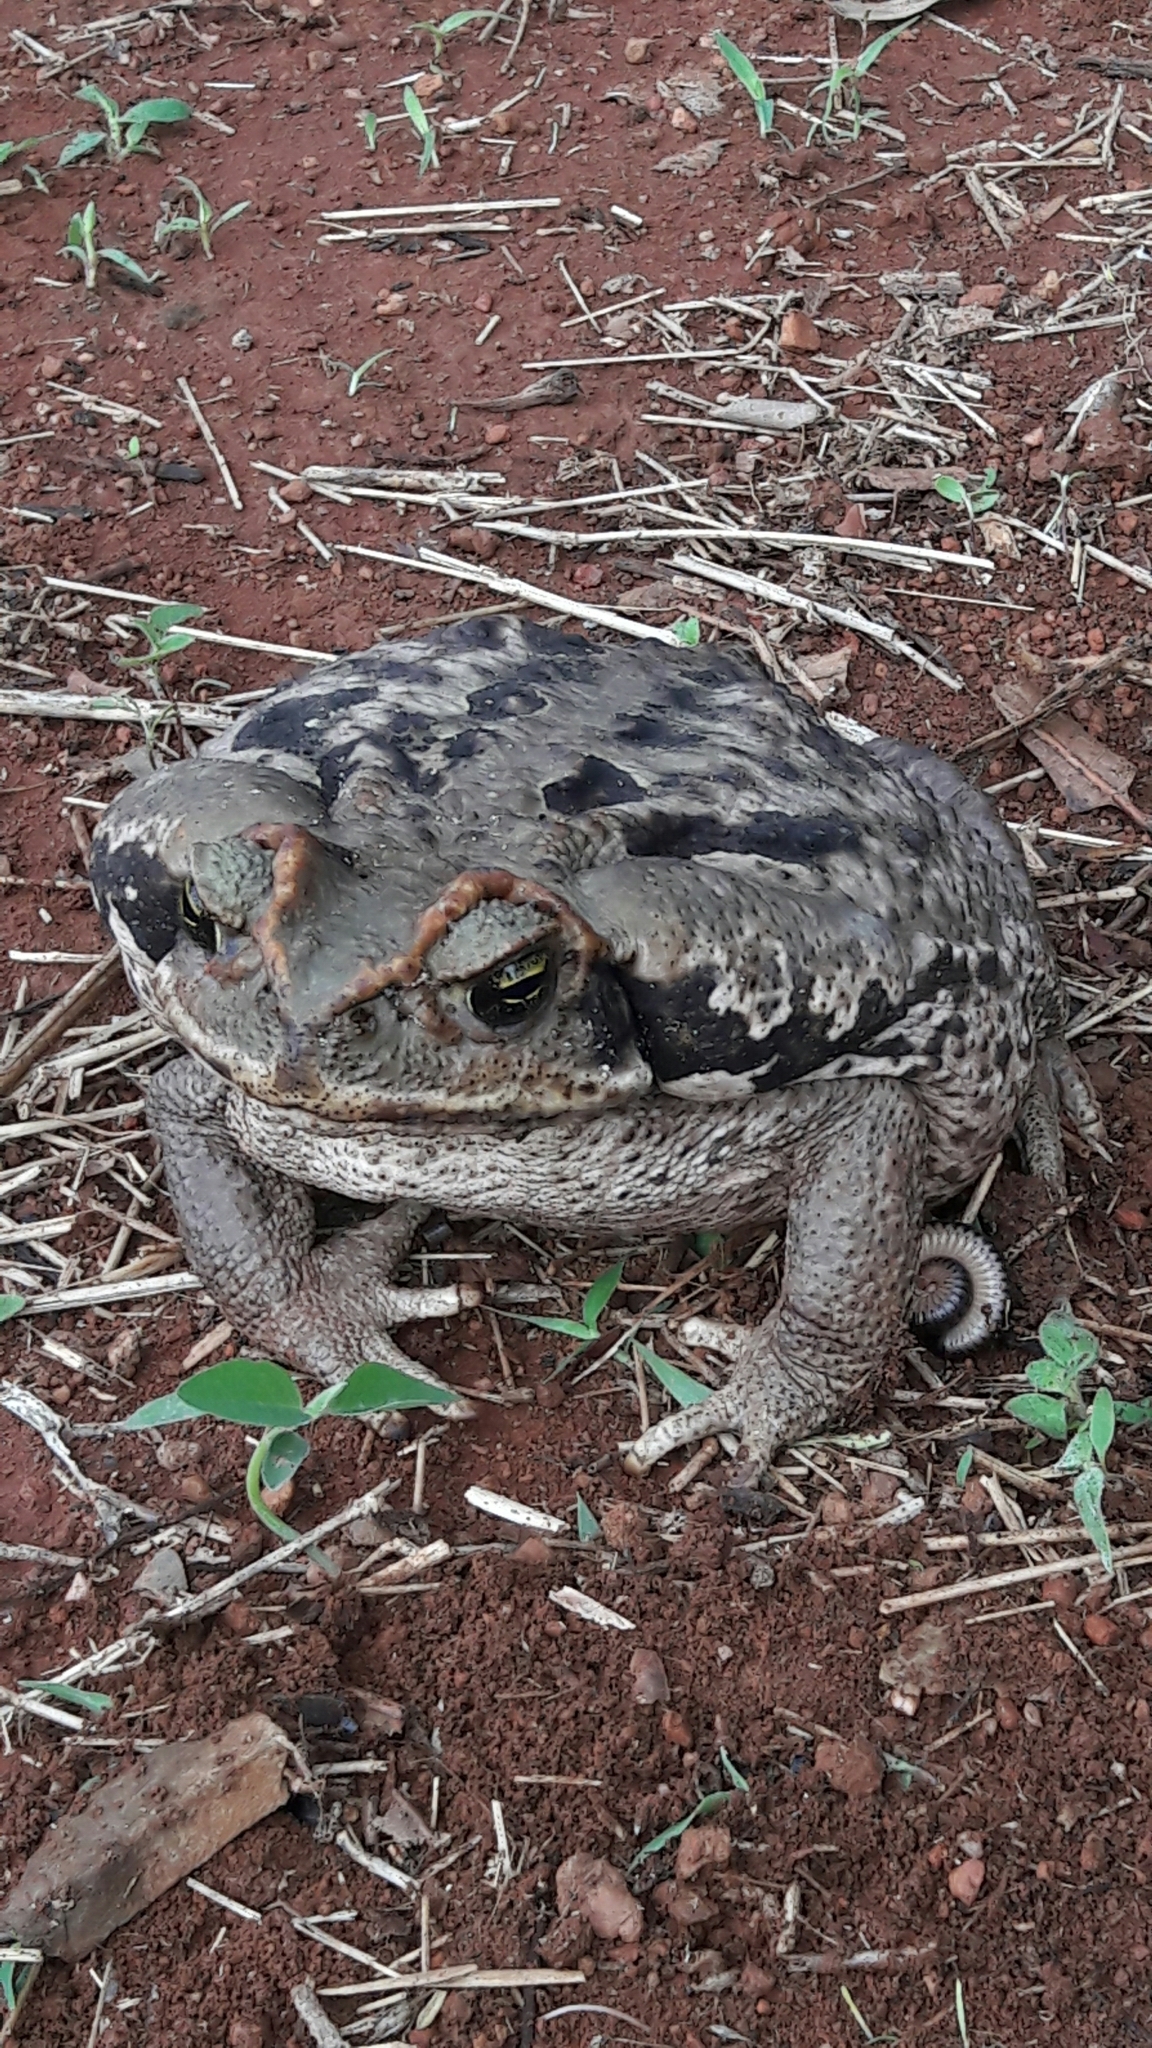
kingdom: Animalia
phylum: Chordata
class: Amphibia
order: Anura
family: Bufonidae
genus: Rhinella
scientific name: Rhinella diptycha
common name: Cope's toad
